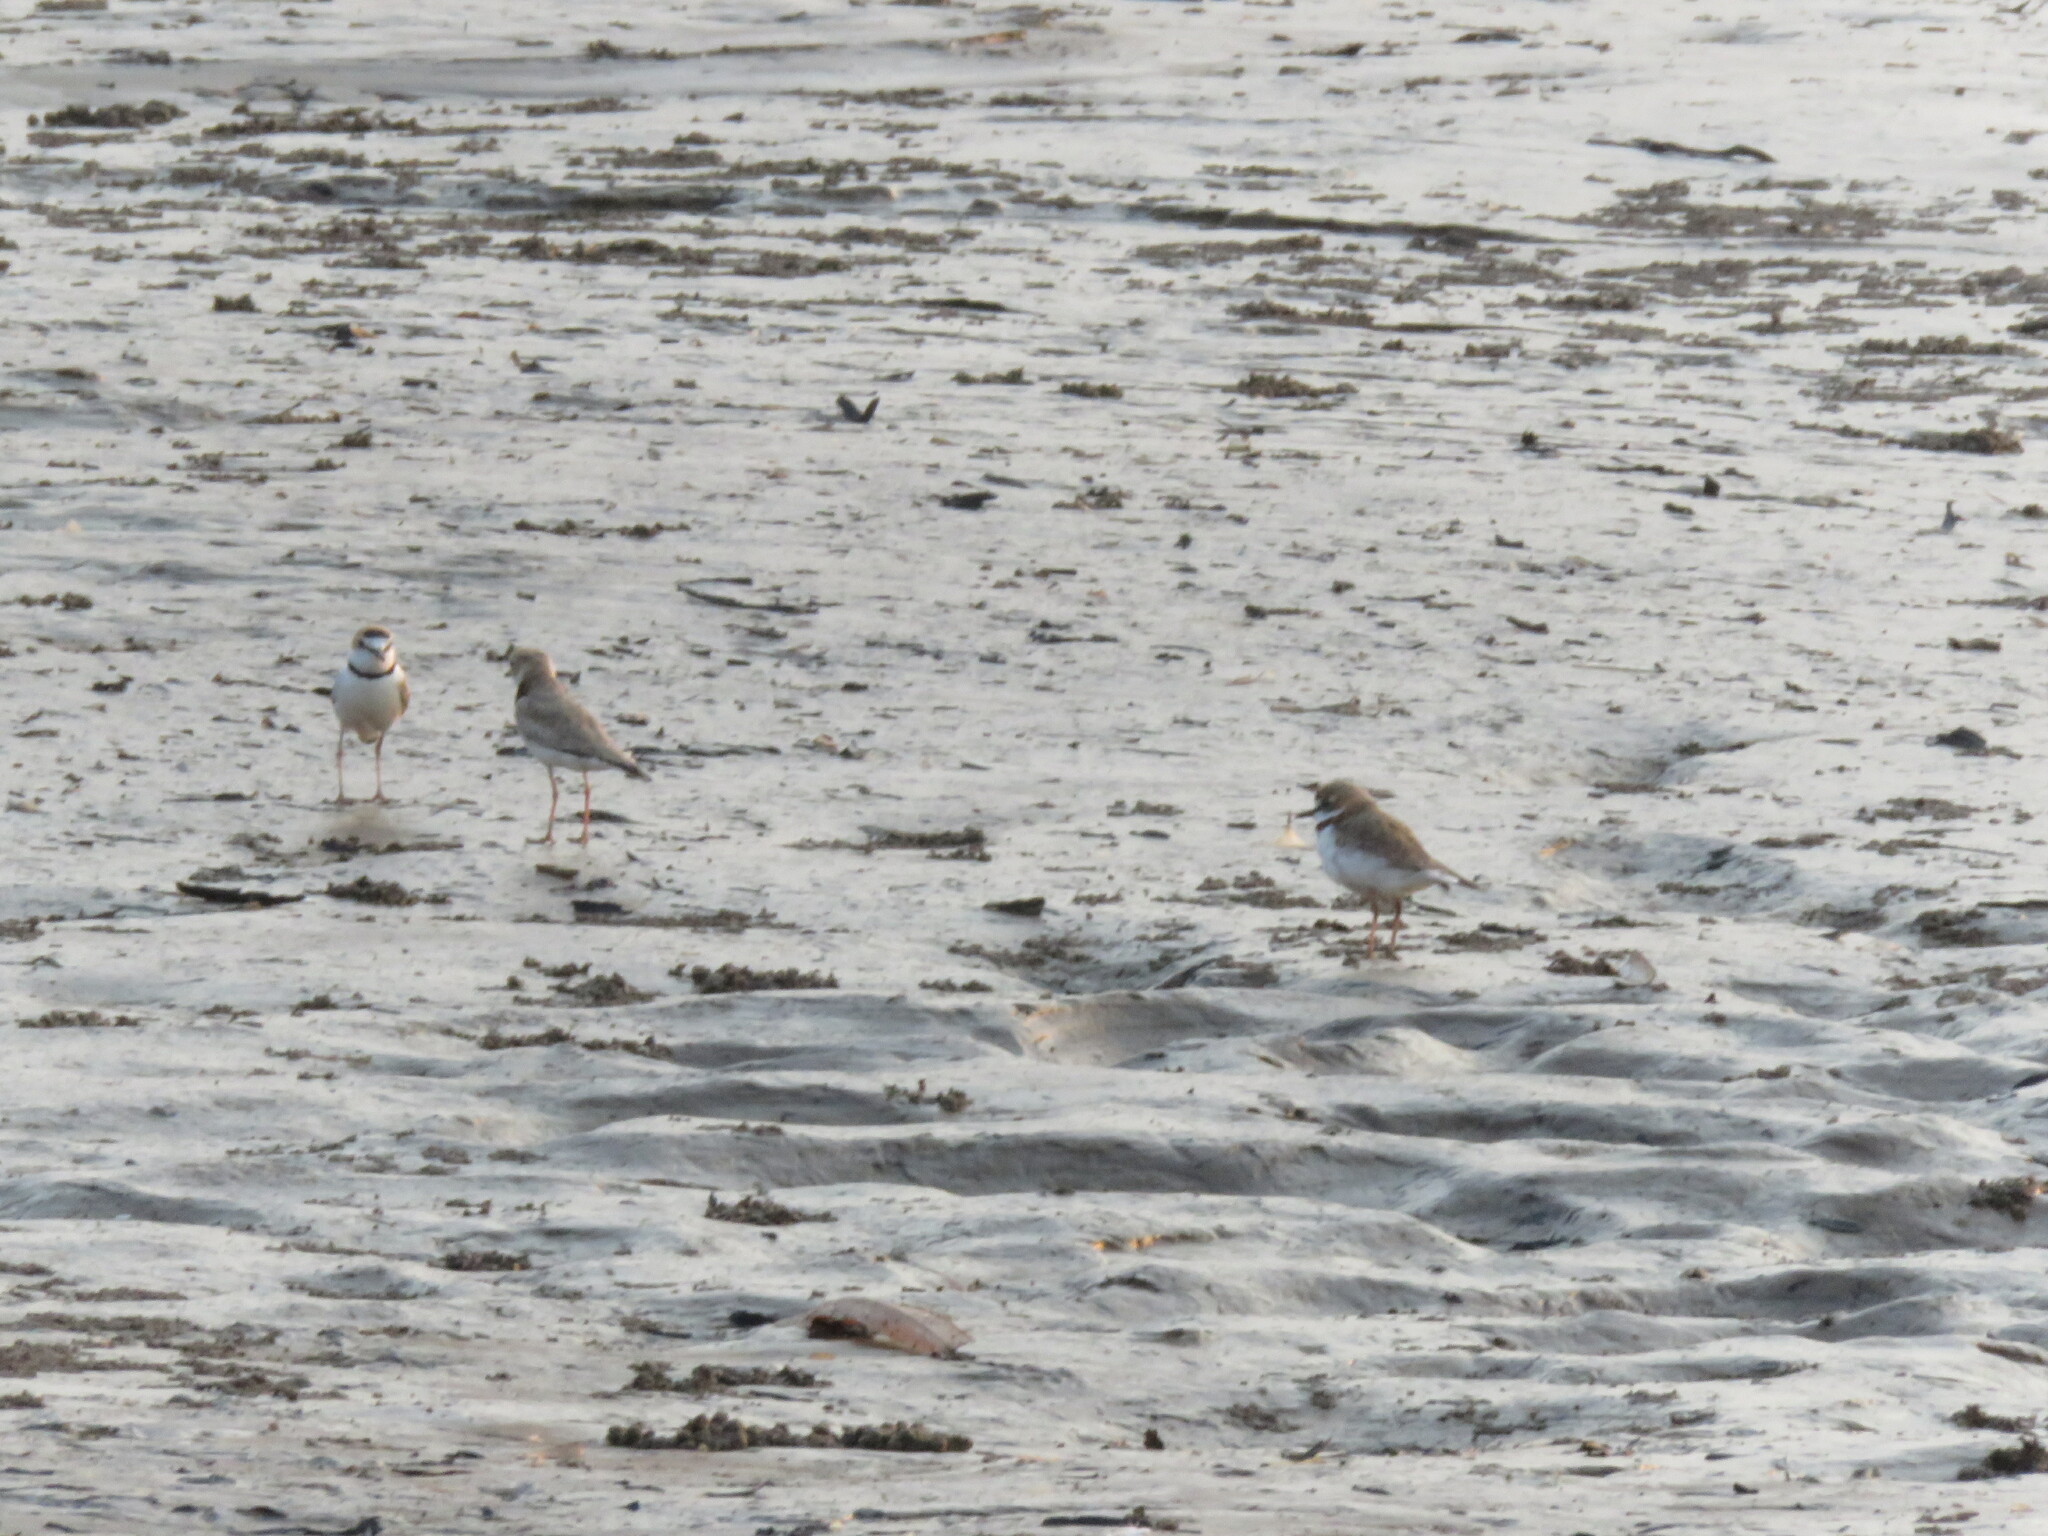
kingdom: Animalia
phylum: Chordata
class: Aves
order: Charadriiformes
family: Charadriidae
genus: Anarhynchus
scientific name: Anarhynchus
